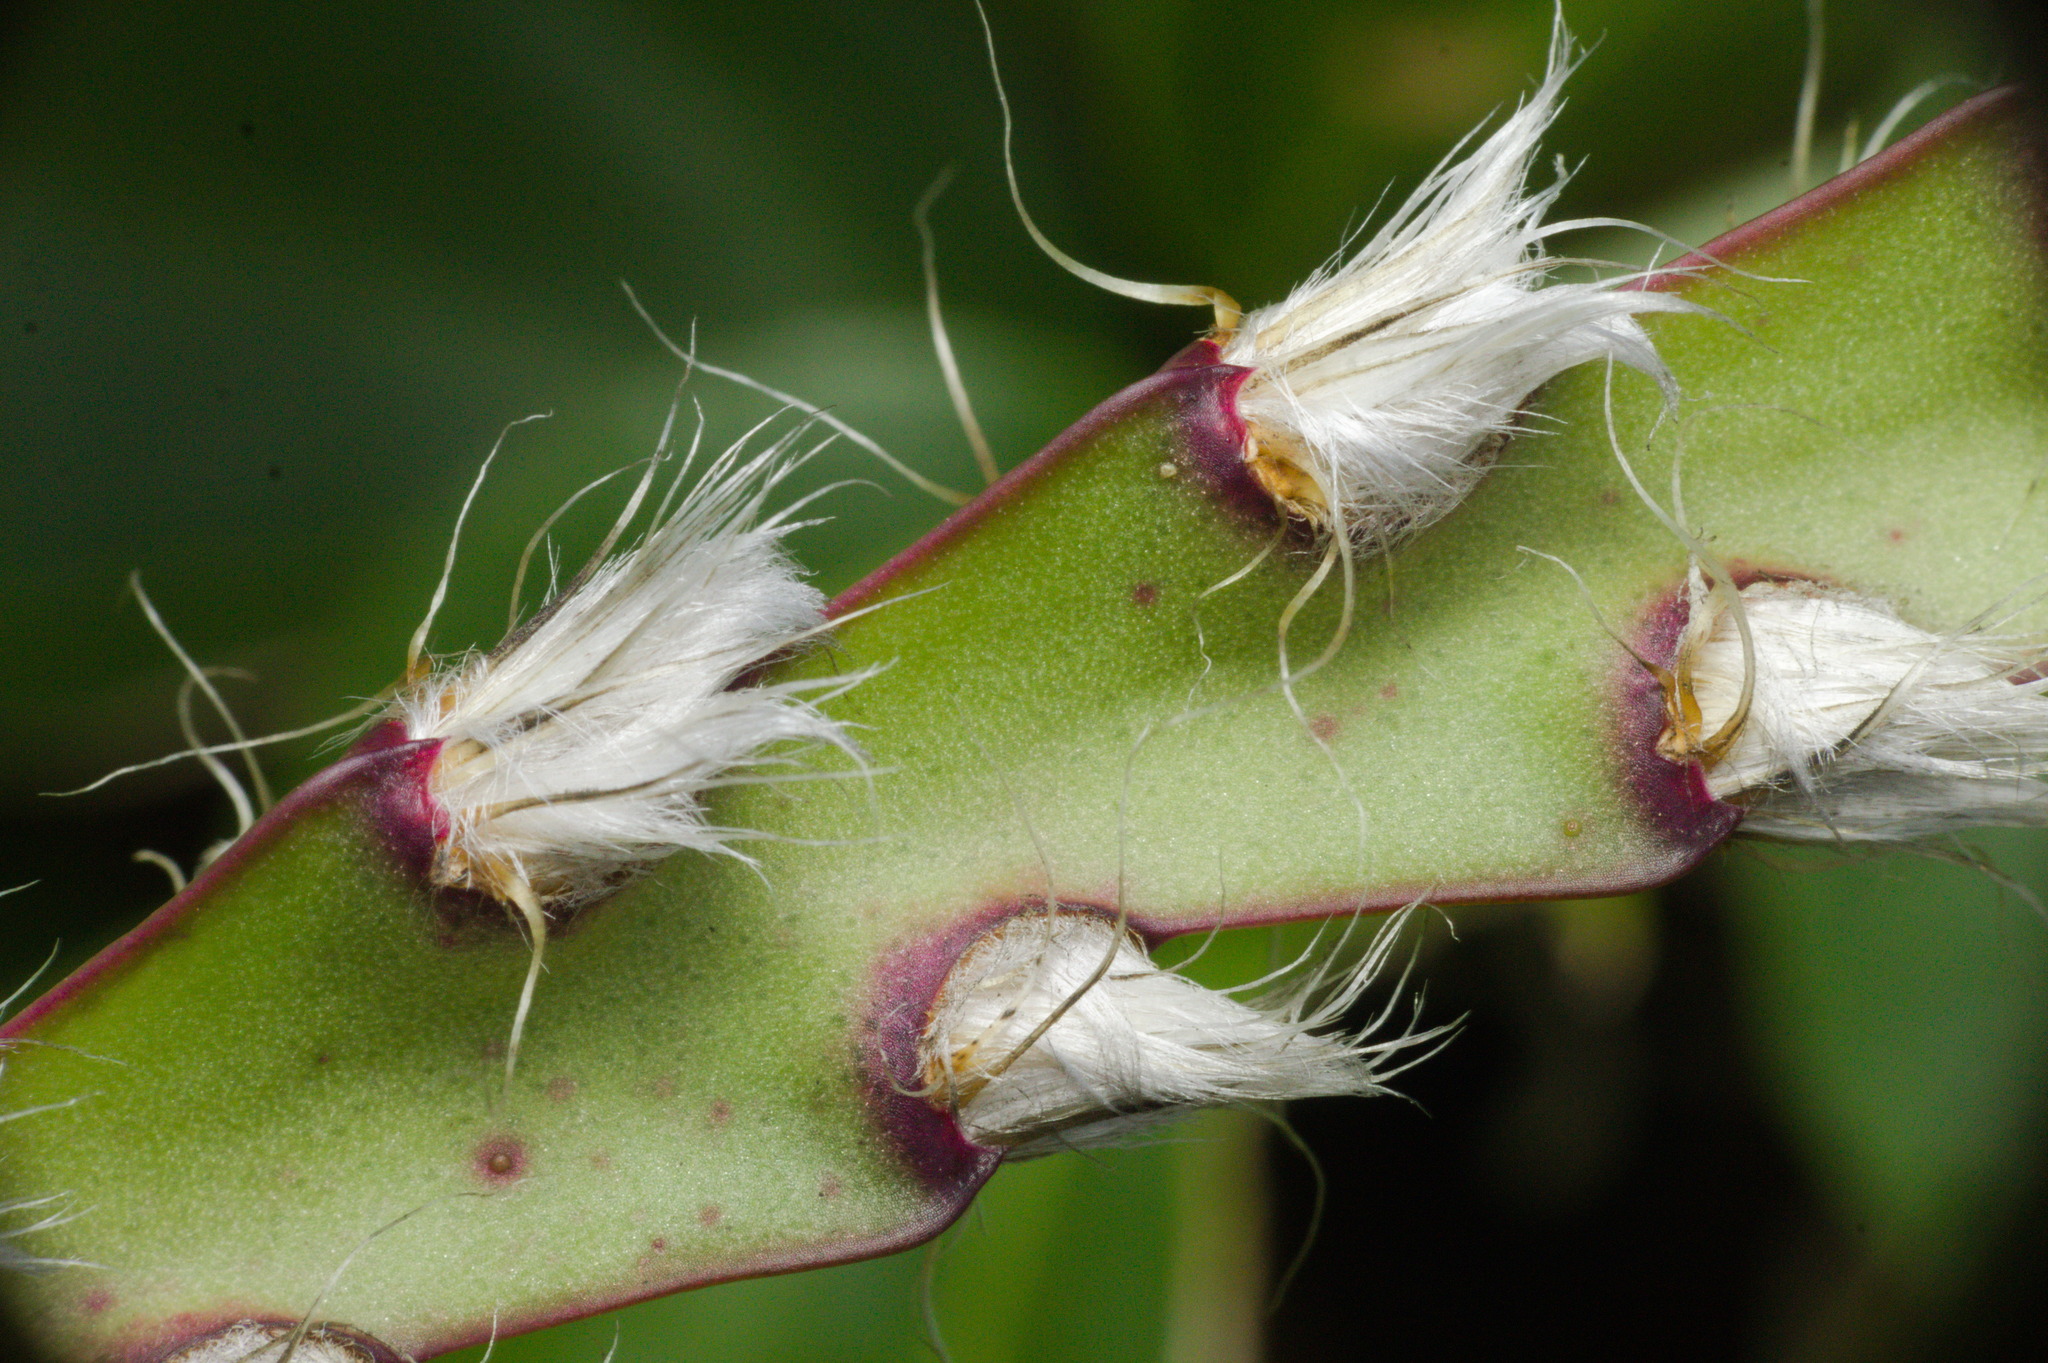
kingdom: Plantae
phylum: Tracheophyta
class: Magnoliopsida
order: Caryophyllales
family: Cactaceae
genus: Lepismium
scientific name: Lepismium cruciforme
